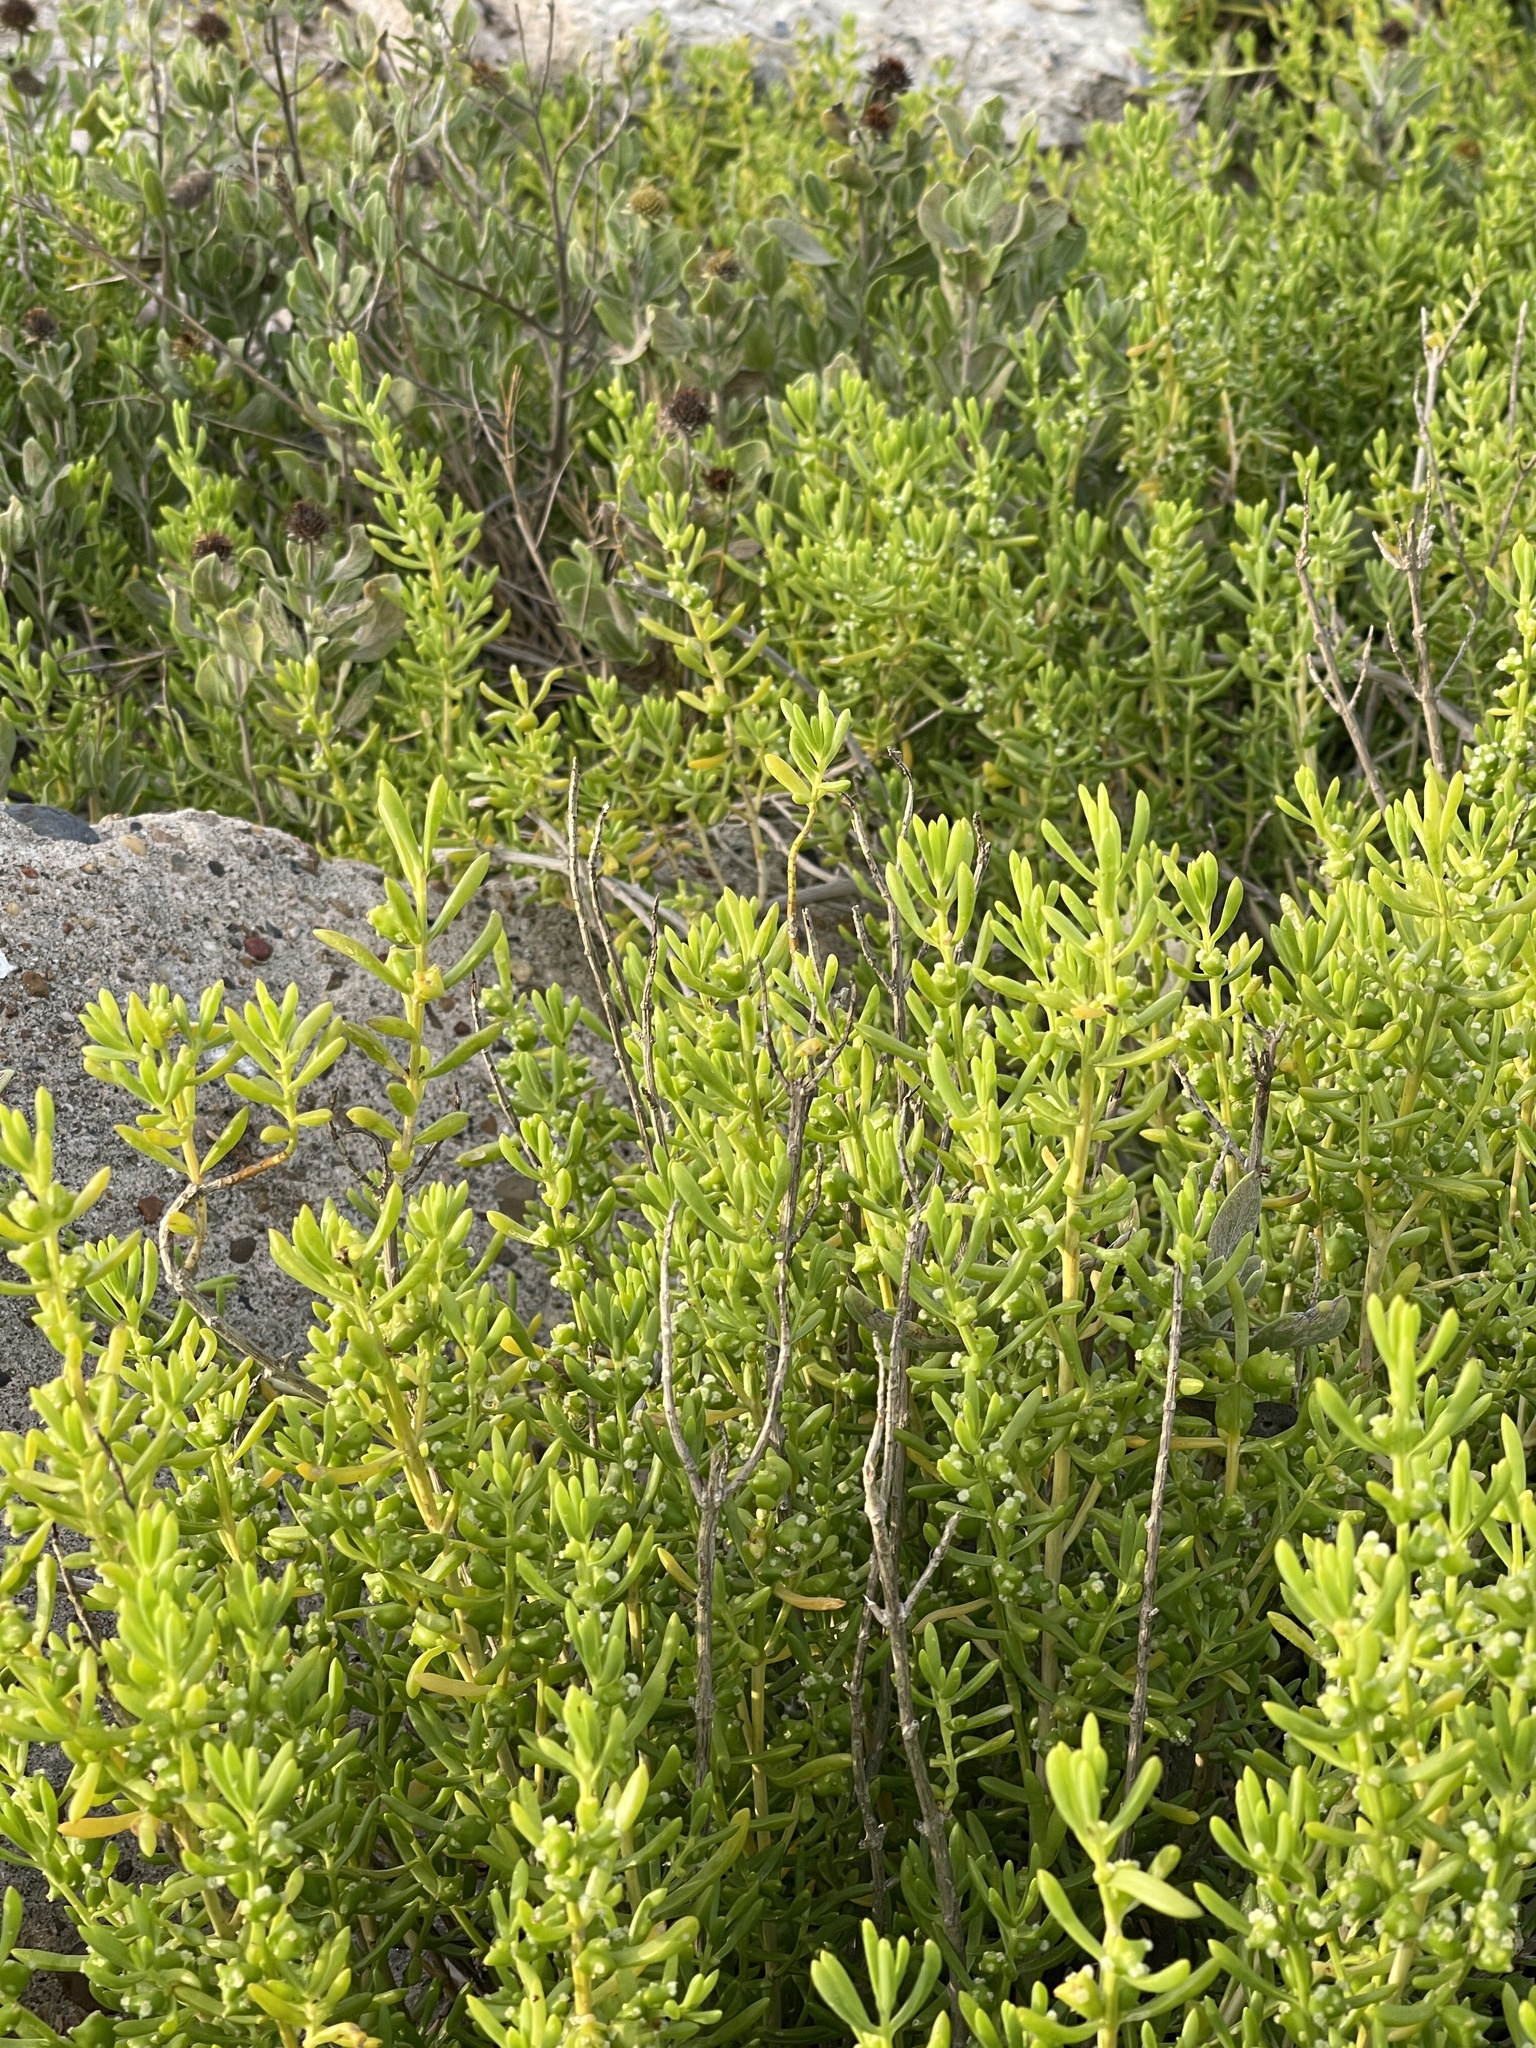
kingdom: Plantae
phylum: Tracheophyta
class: Magnoliopsida
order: Brassicales
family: Bataceae
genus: Batis
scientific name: Batis maritima
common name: Turtleweed
